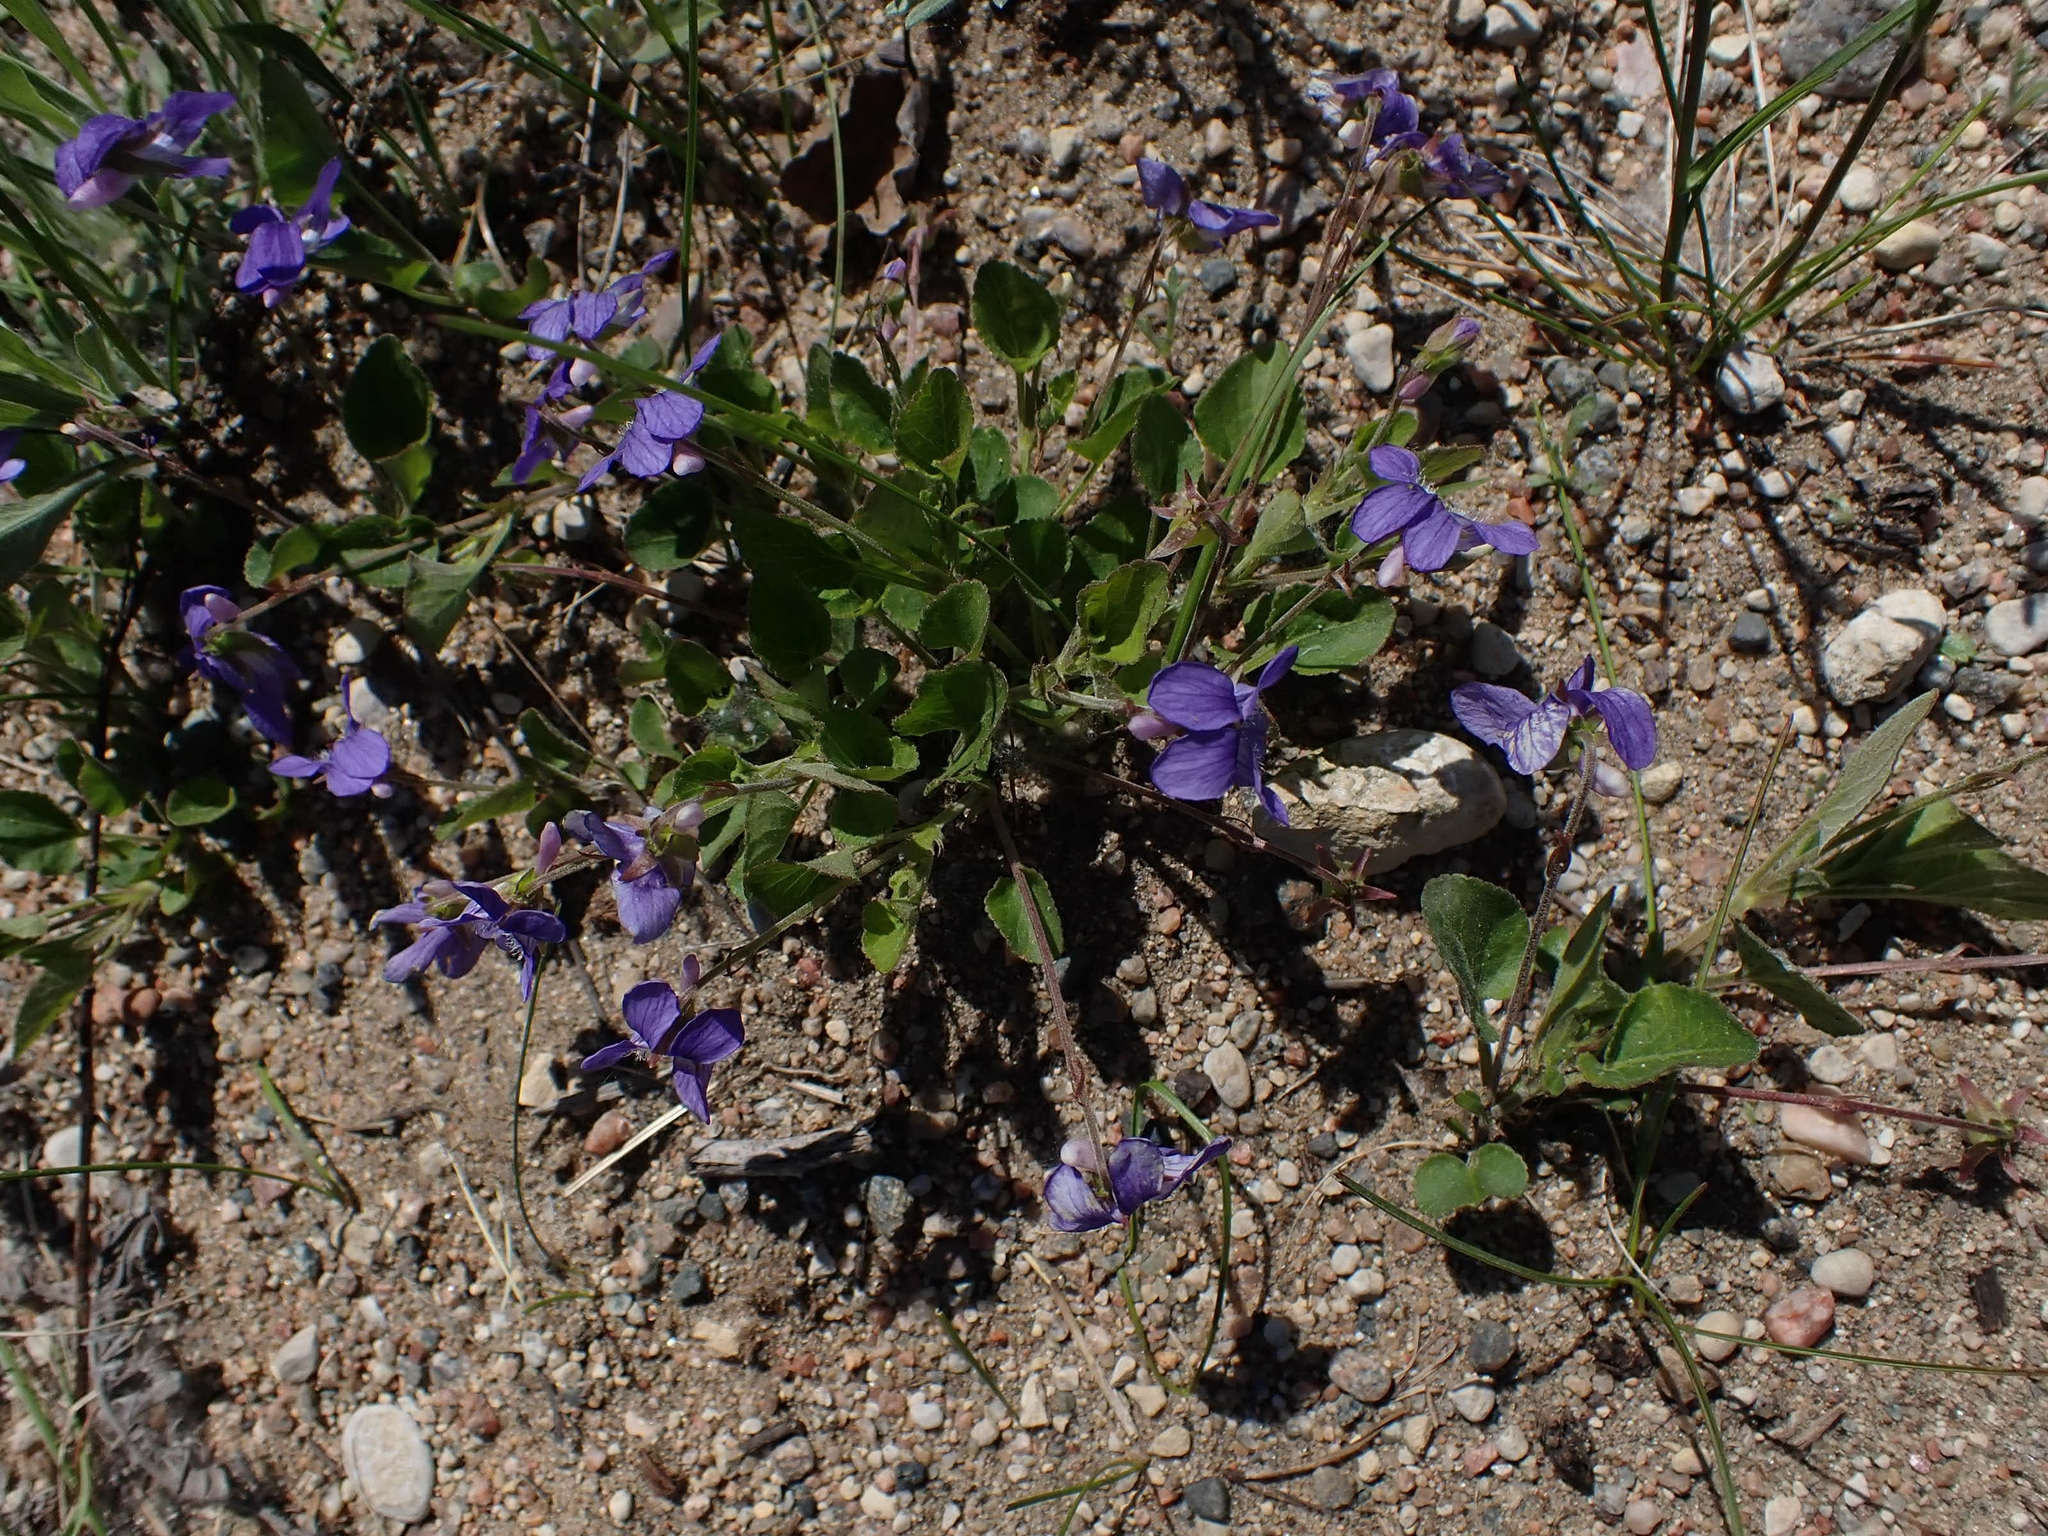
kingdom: Plantae
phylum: Tracheophyta
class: Magnoliopsida
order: Malpighiales
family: Violaceae
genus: Viola
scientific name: Viola adunca
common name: Sand violet
